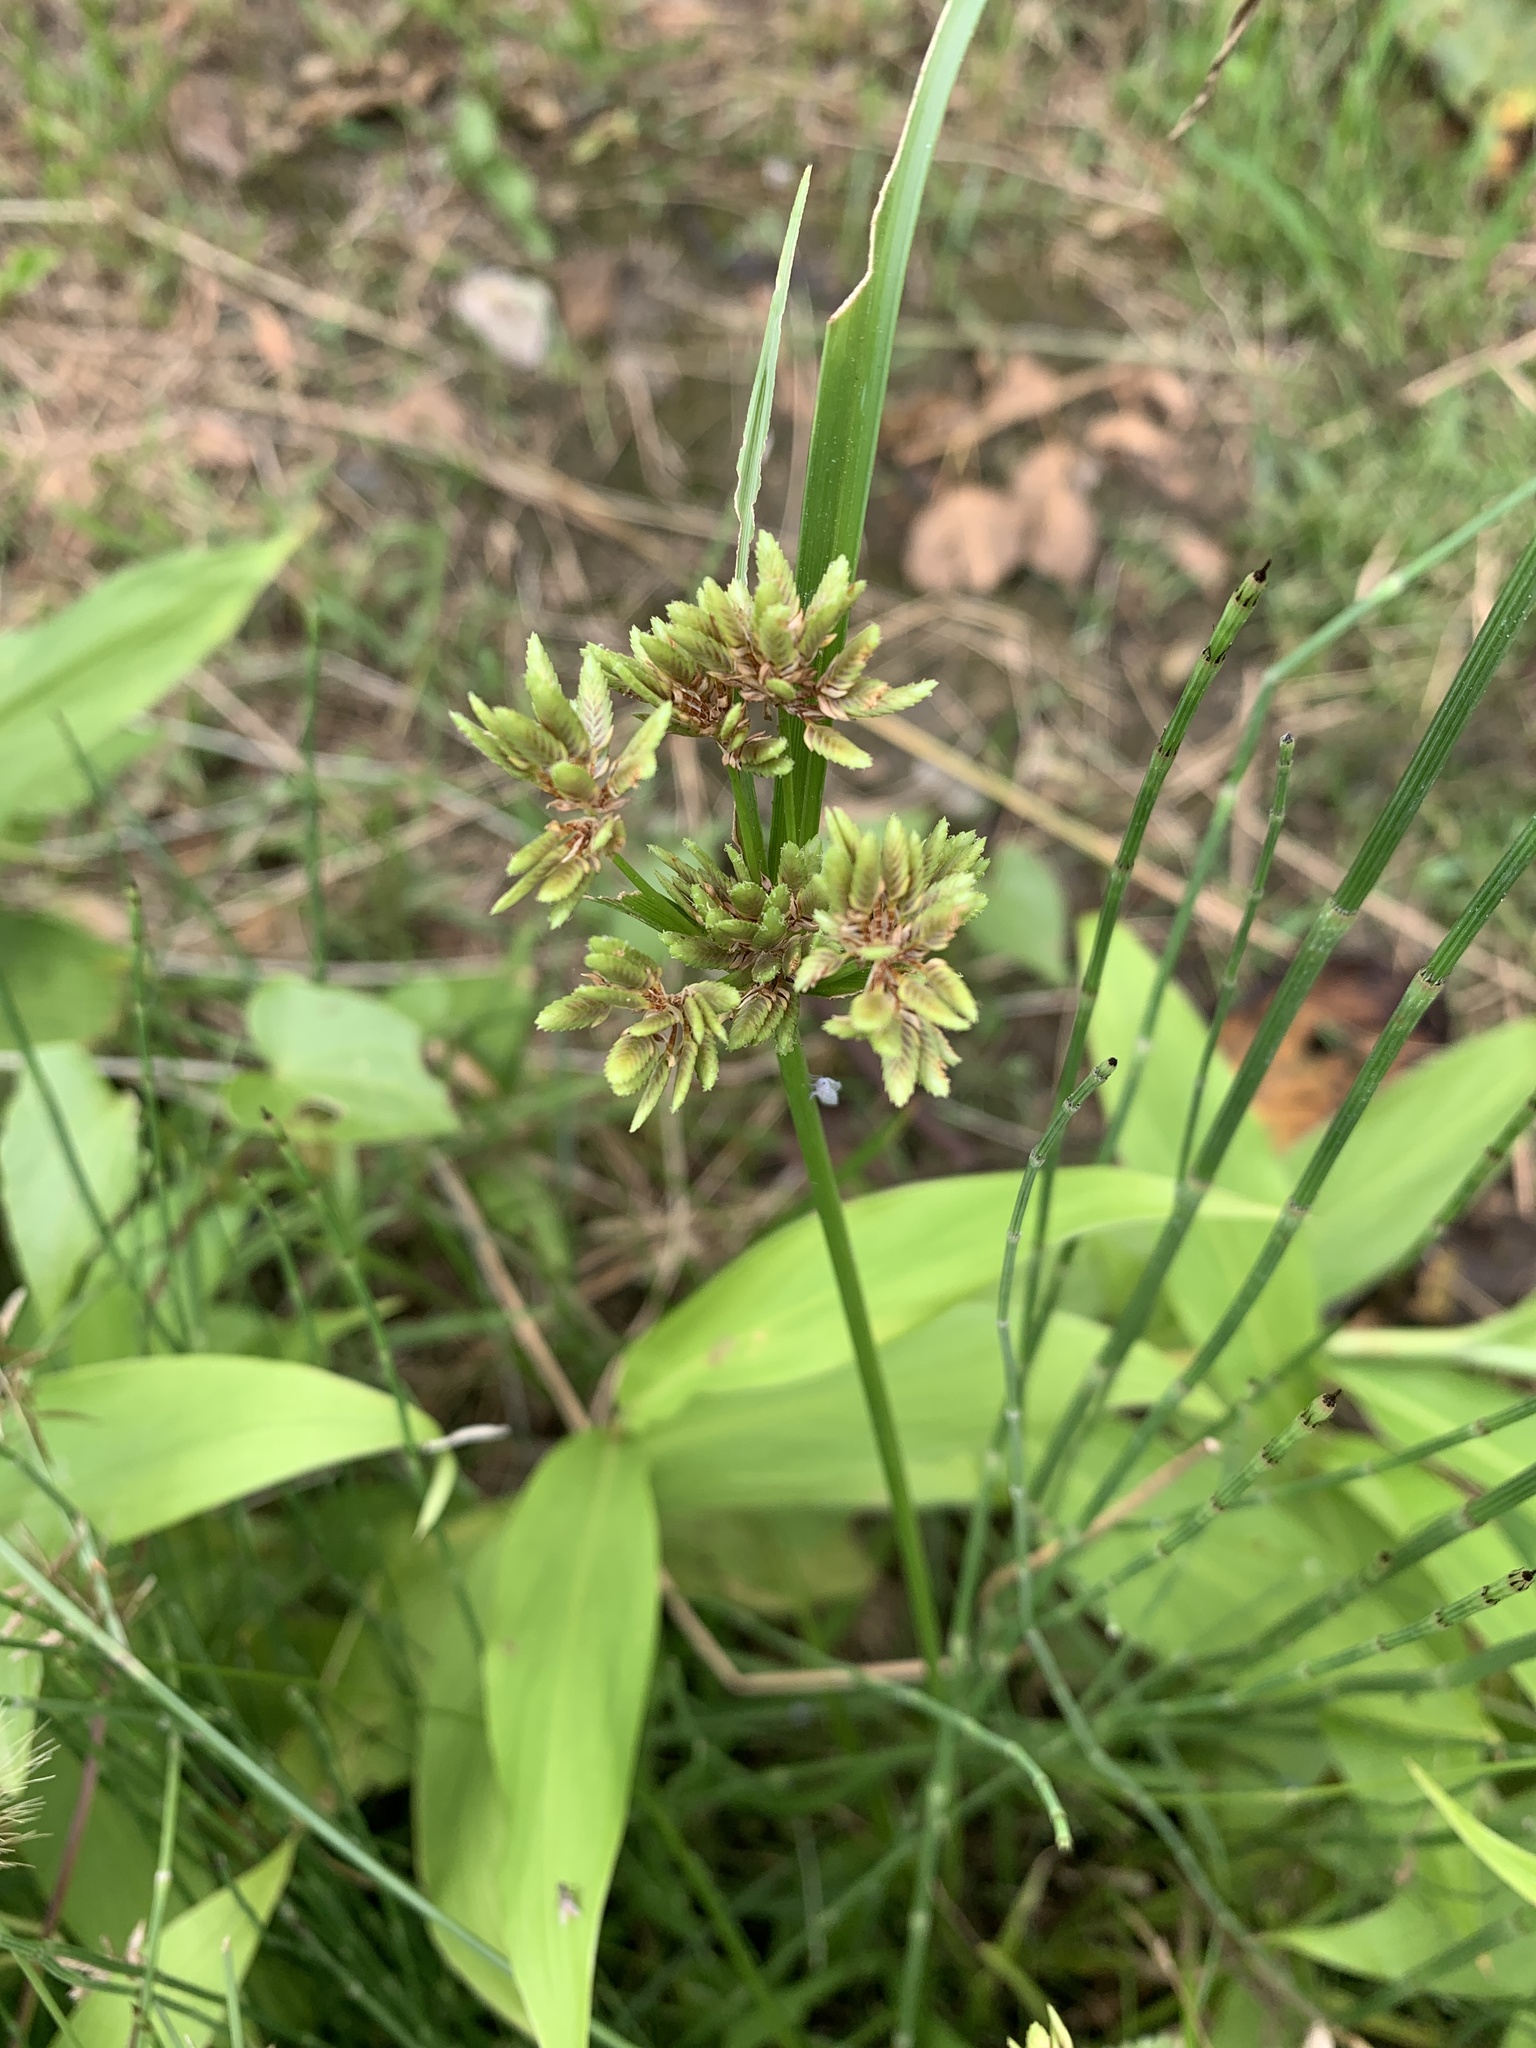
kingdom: Plantae
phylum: Tracheophyta
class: Liliopsida
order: Poales
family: Cyperaceae
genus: Cyperus
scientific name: Cyperus eragrostis
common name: Tall flatsedge
